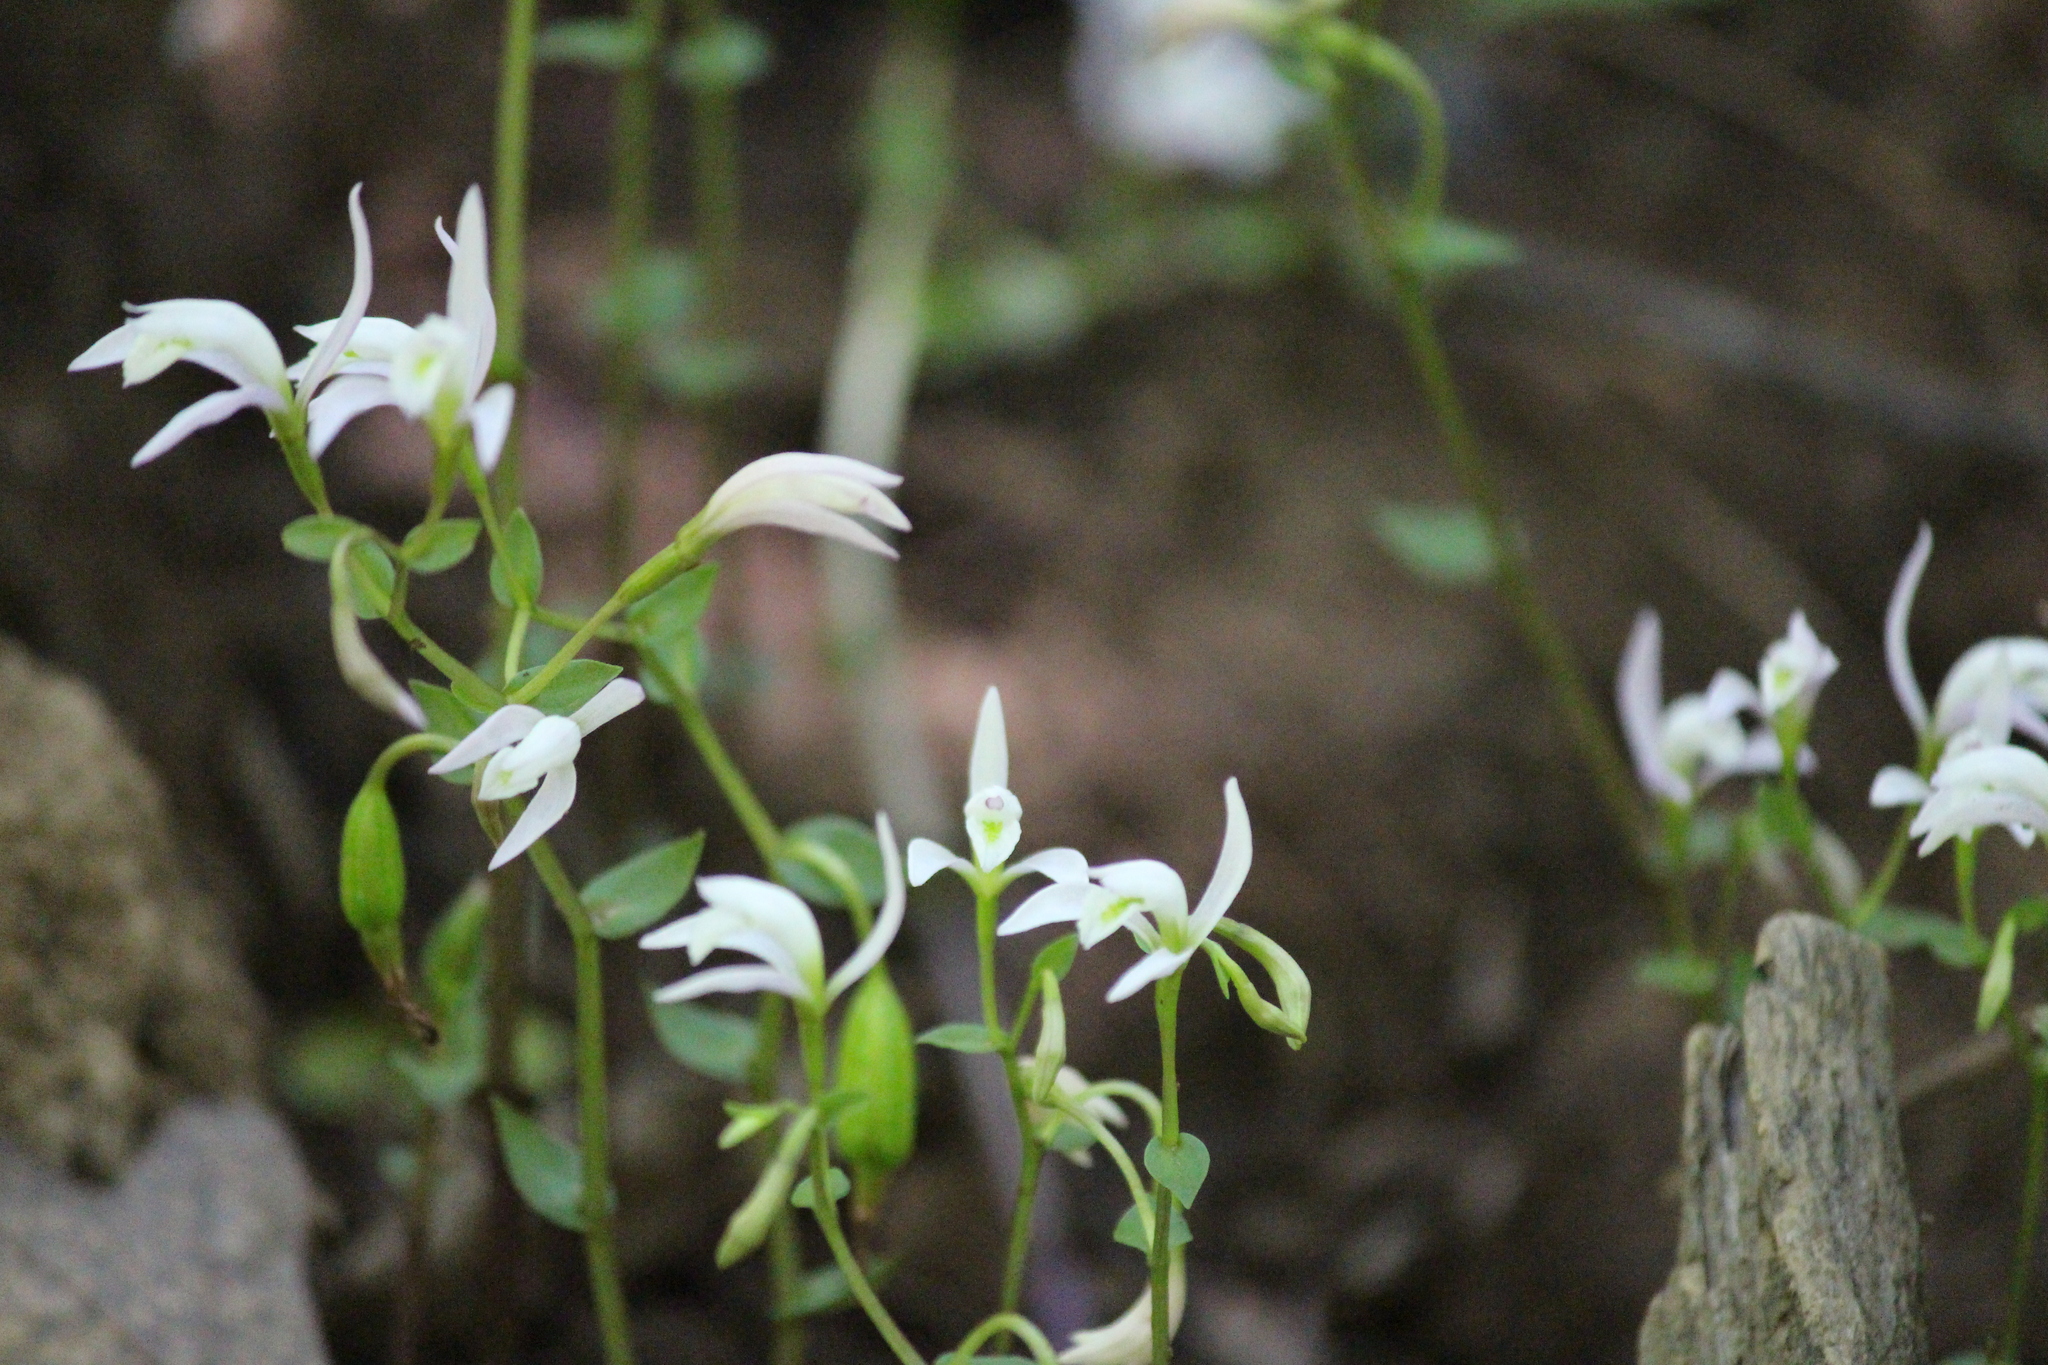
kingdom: Plantae
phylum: Tracheophyta
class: Liliopsida
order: Asparagales
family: Orchidaceae
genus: Triphora
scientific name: Triphora trianthophoros
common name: Three birds orchid
